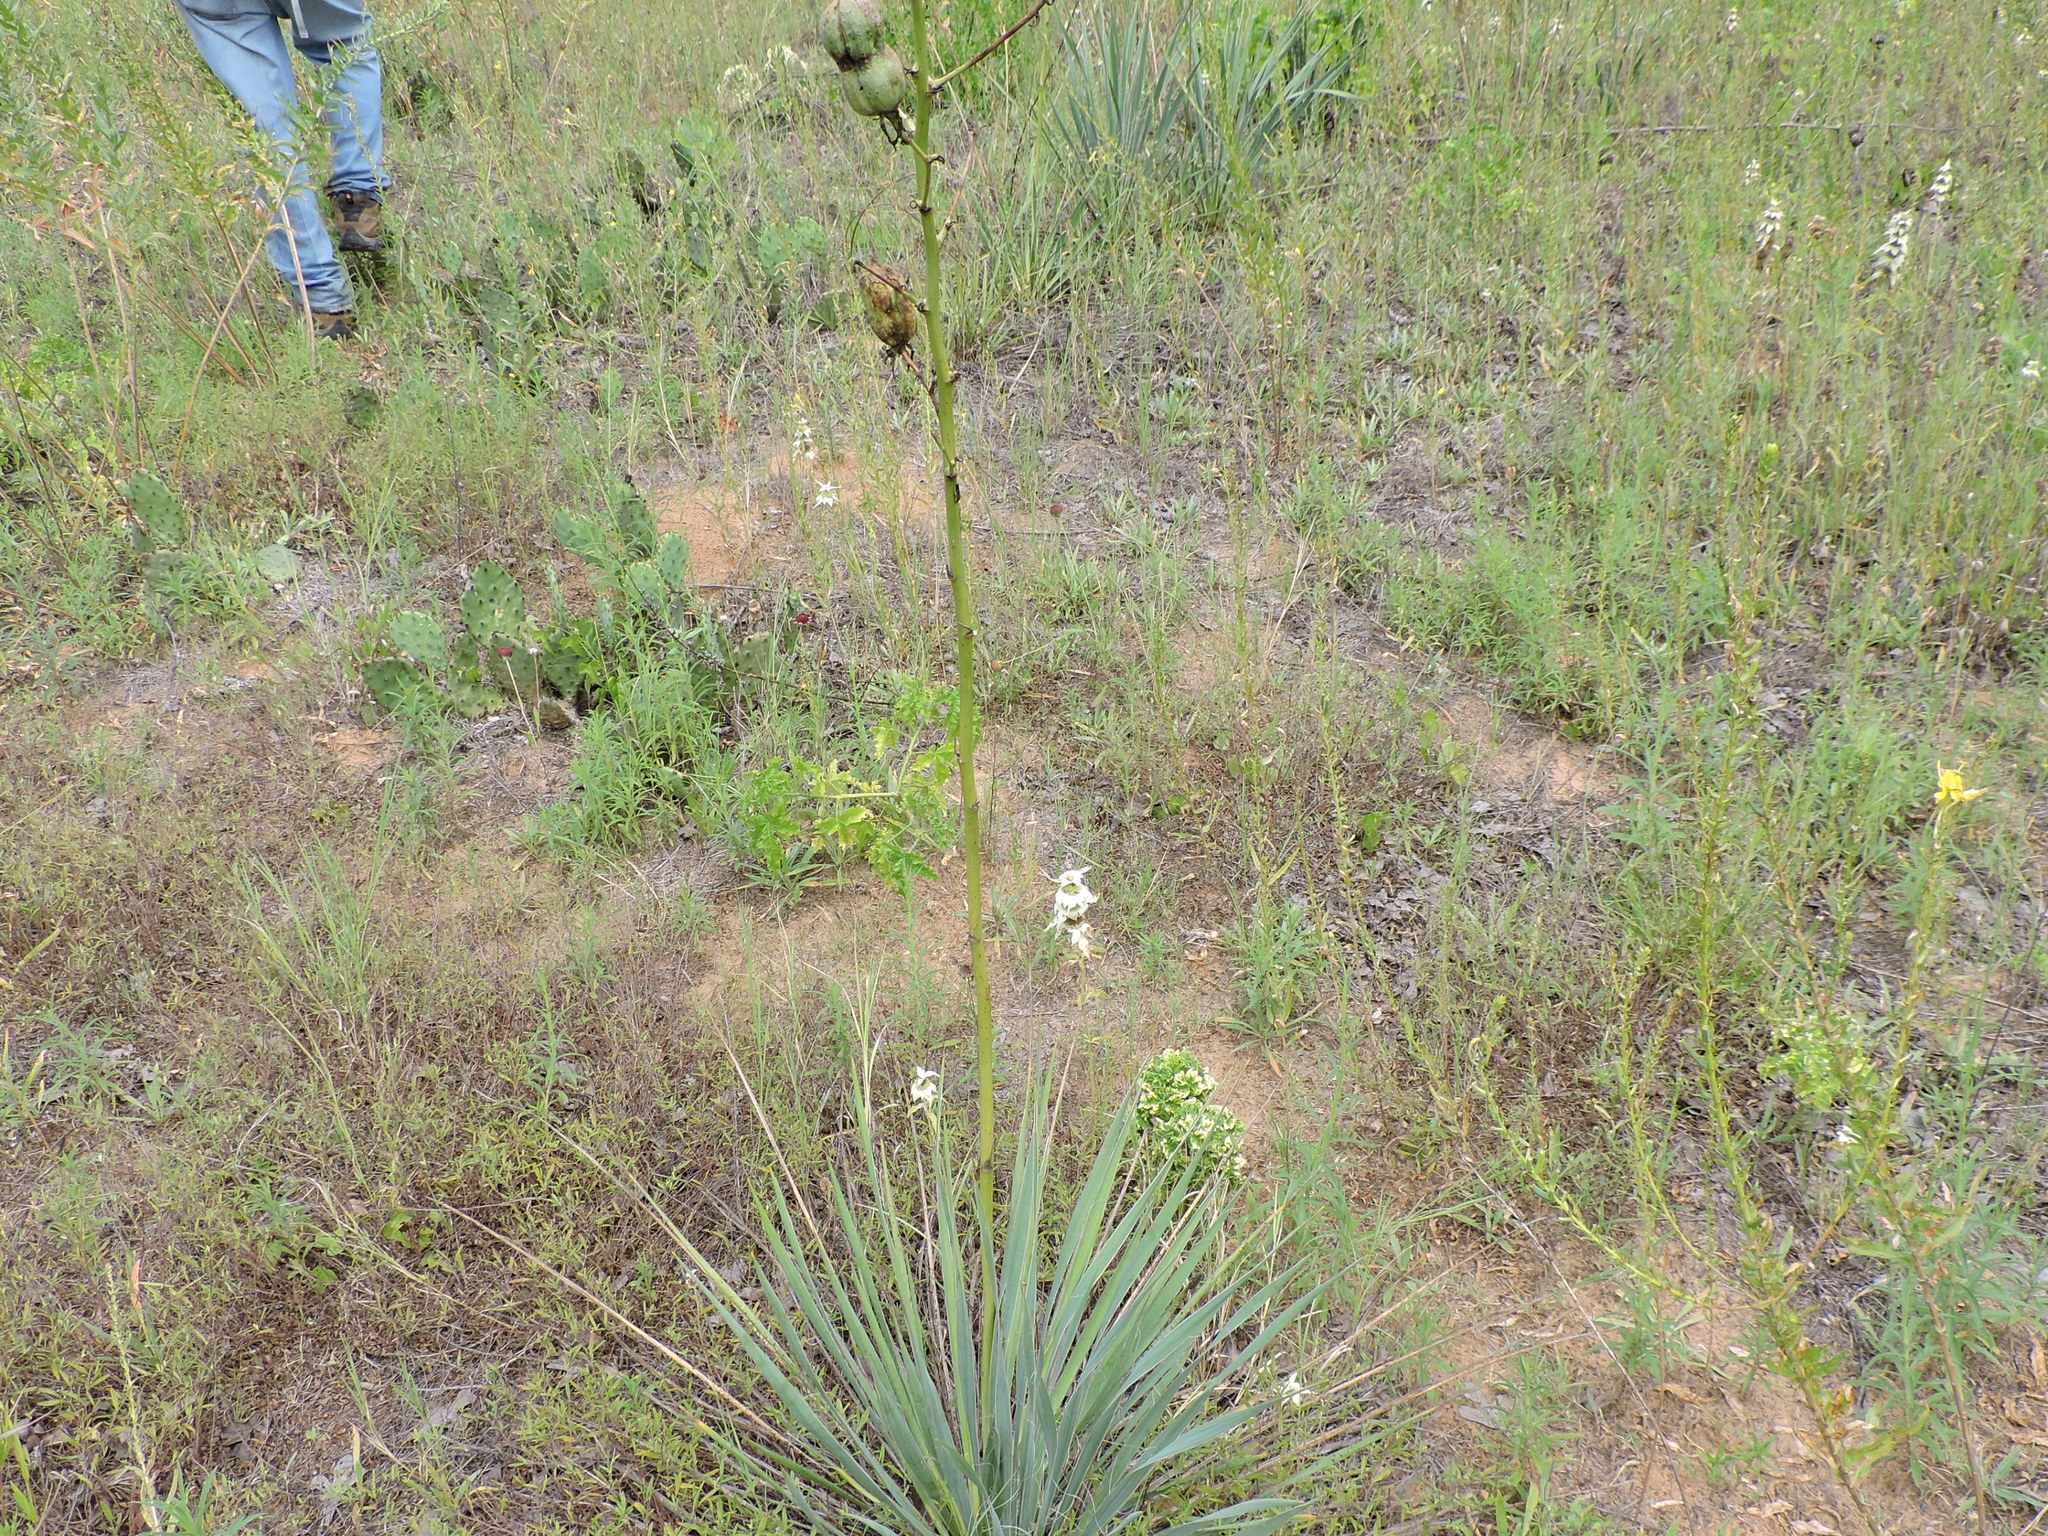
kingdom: Plantae
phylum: Tracheophyta
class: Liliopsida
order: Asparagales
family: Asparagaceae
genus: Yucca
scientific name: Yucca necopina
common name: Glen rose yucca
